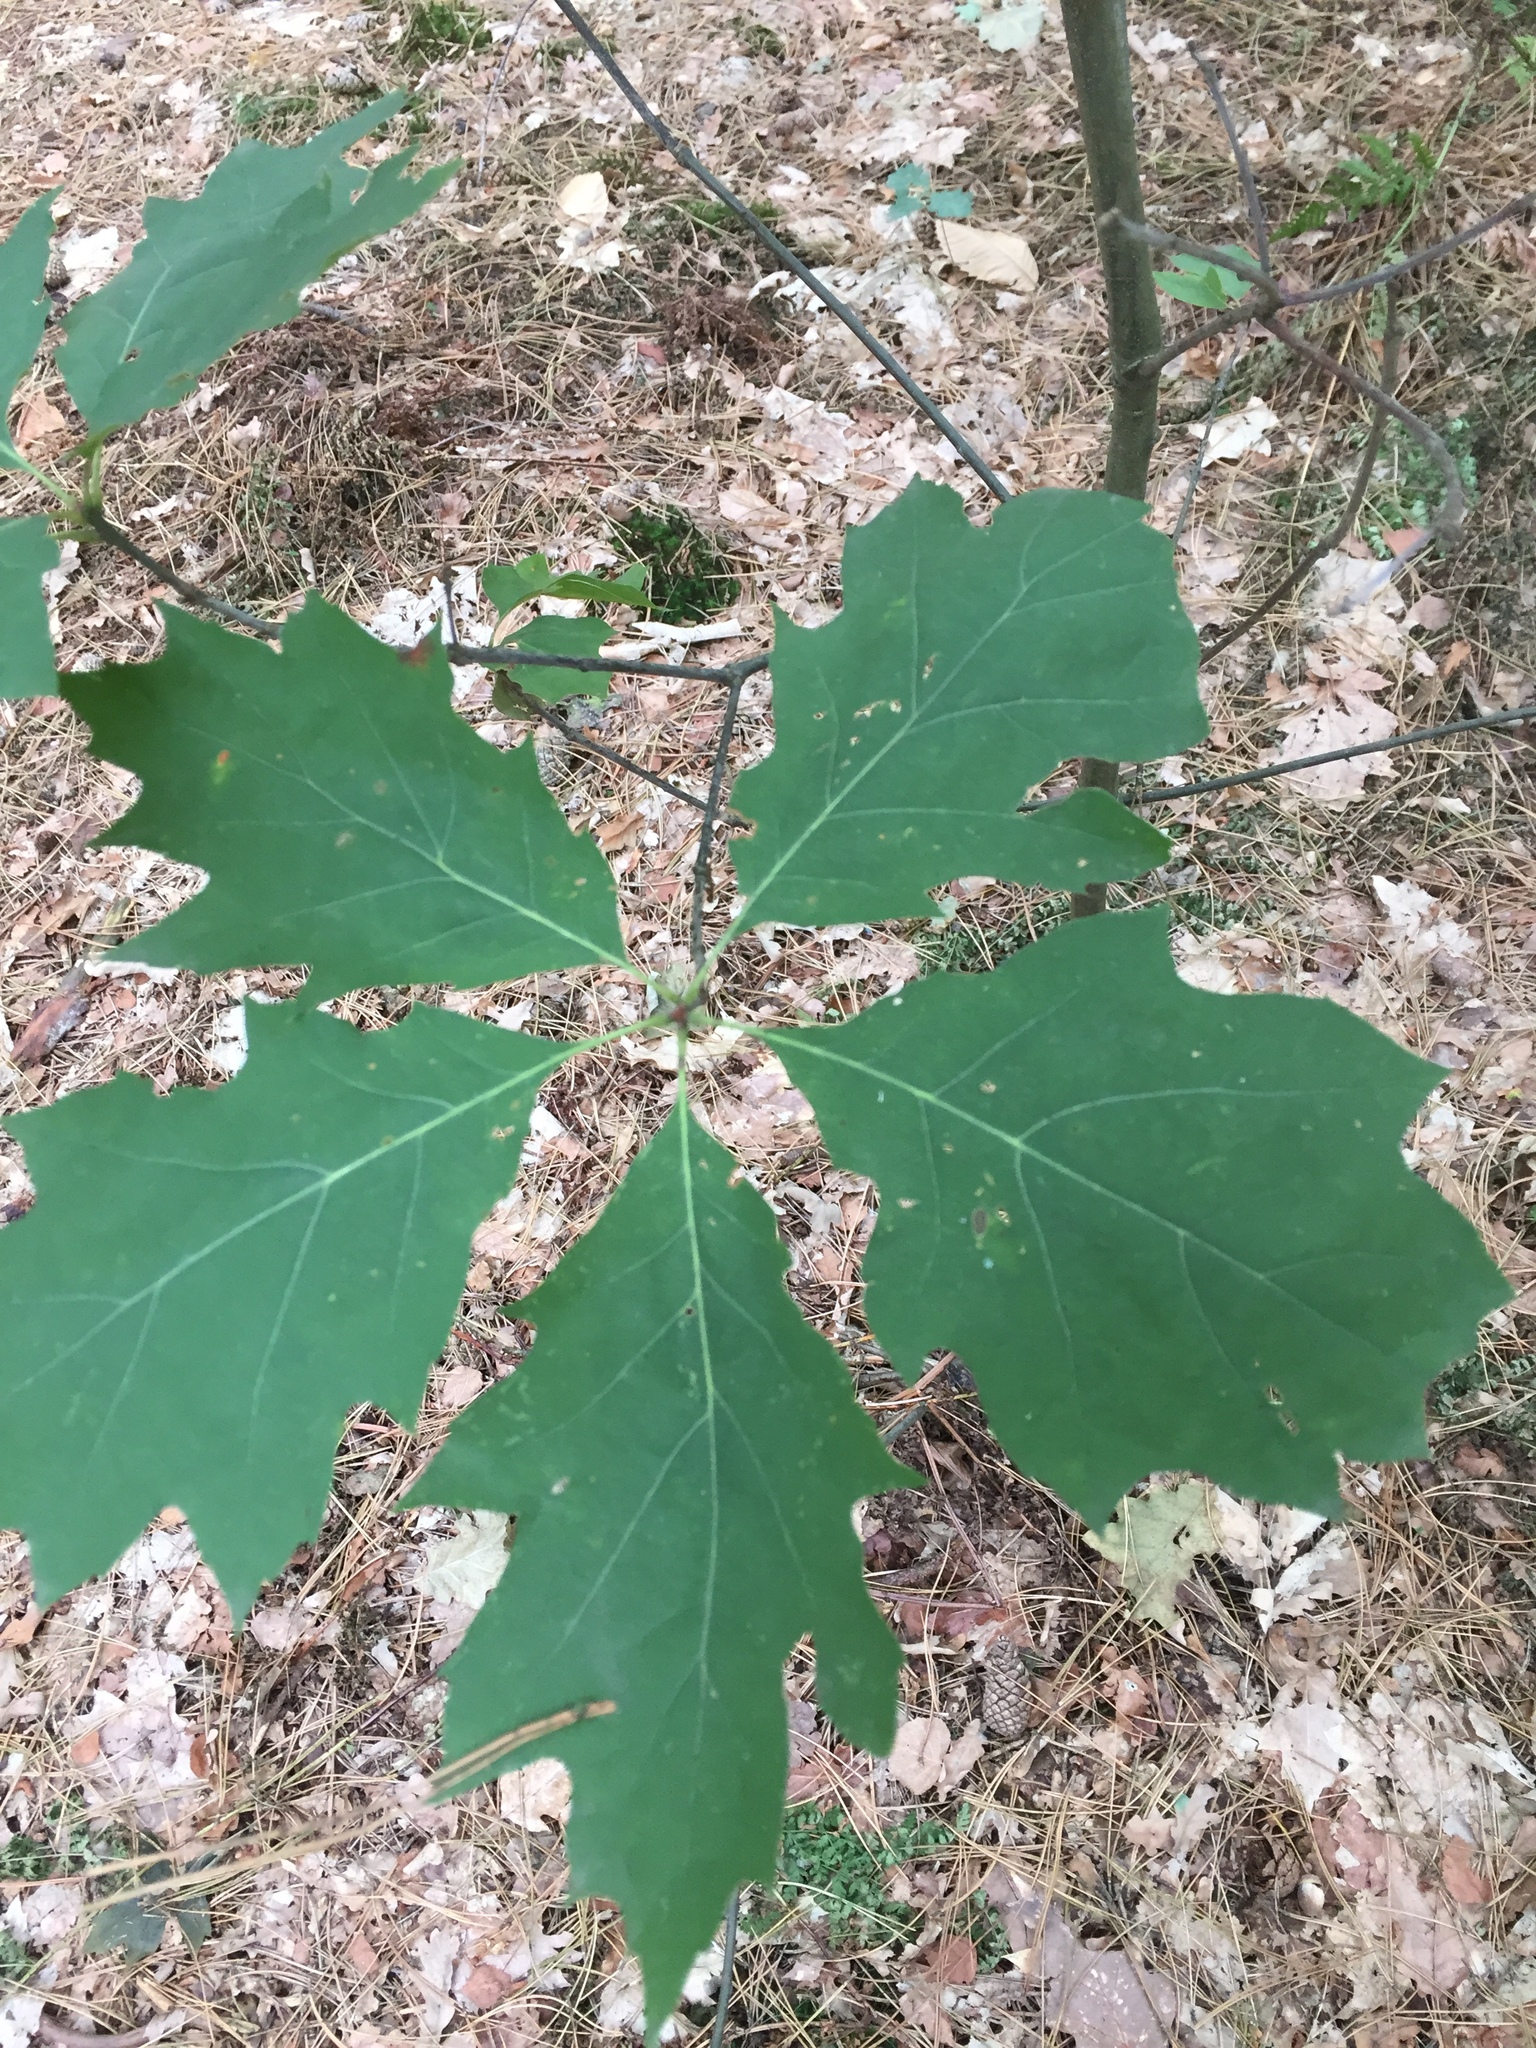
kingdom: Plantae
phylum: Tracheophyta
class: Magnoliopsida
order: Fagales
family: Fagaceae
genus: Quercus
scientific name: Quercus rubra
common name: Red oak
